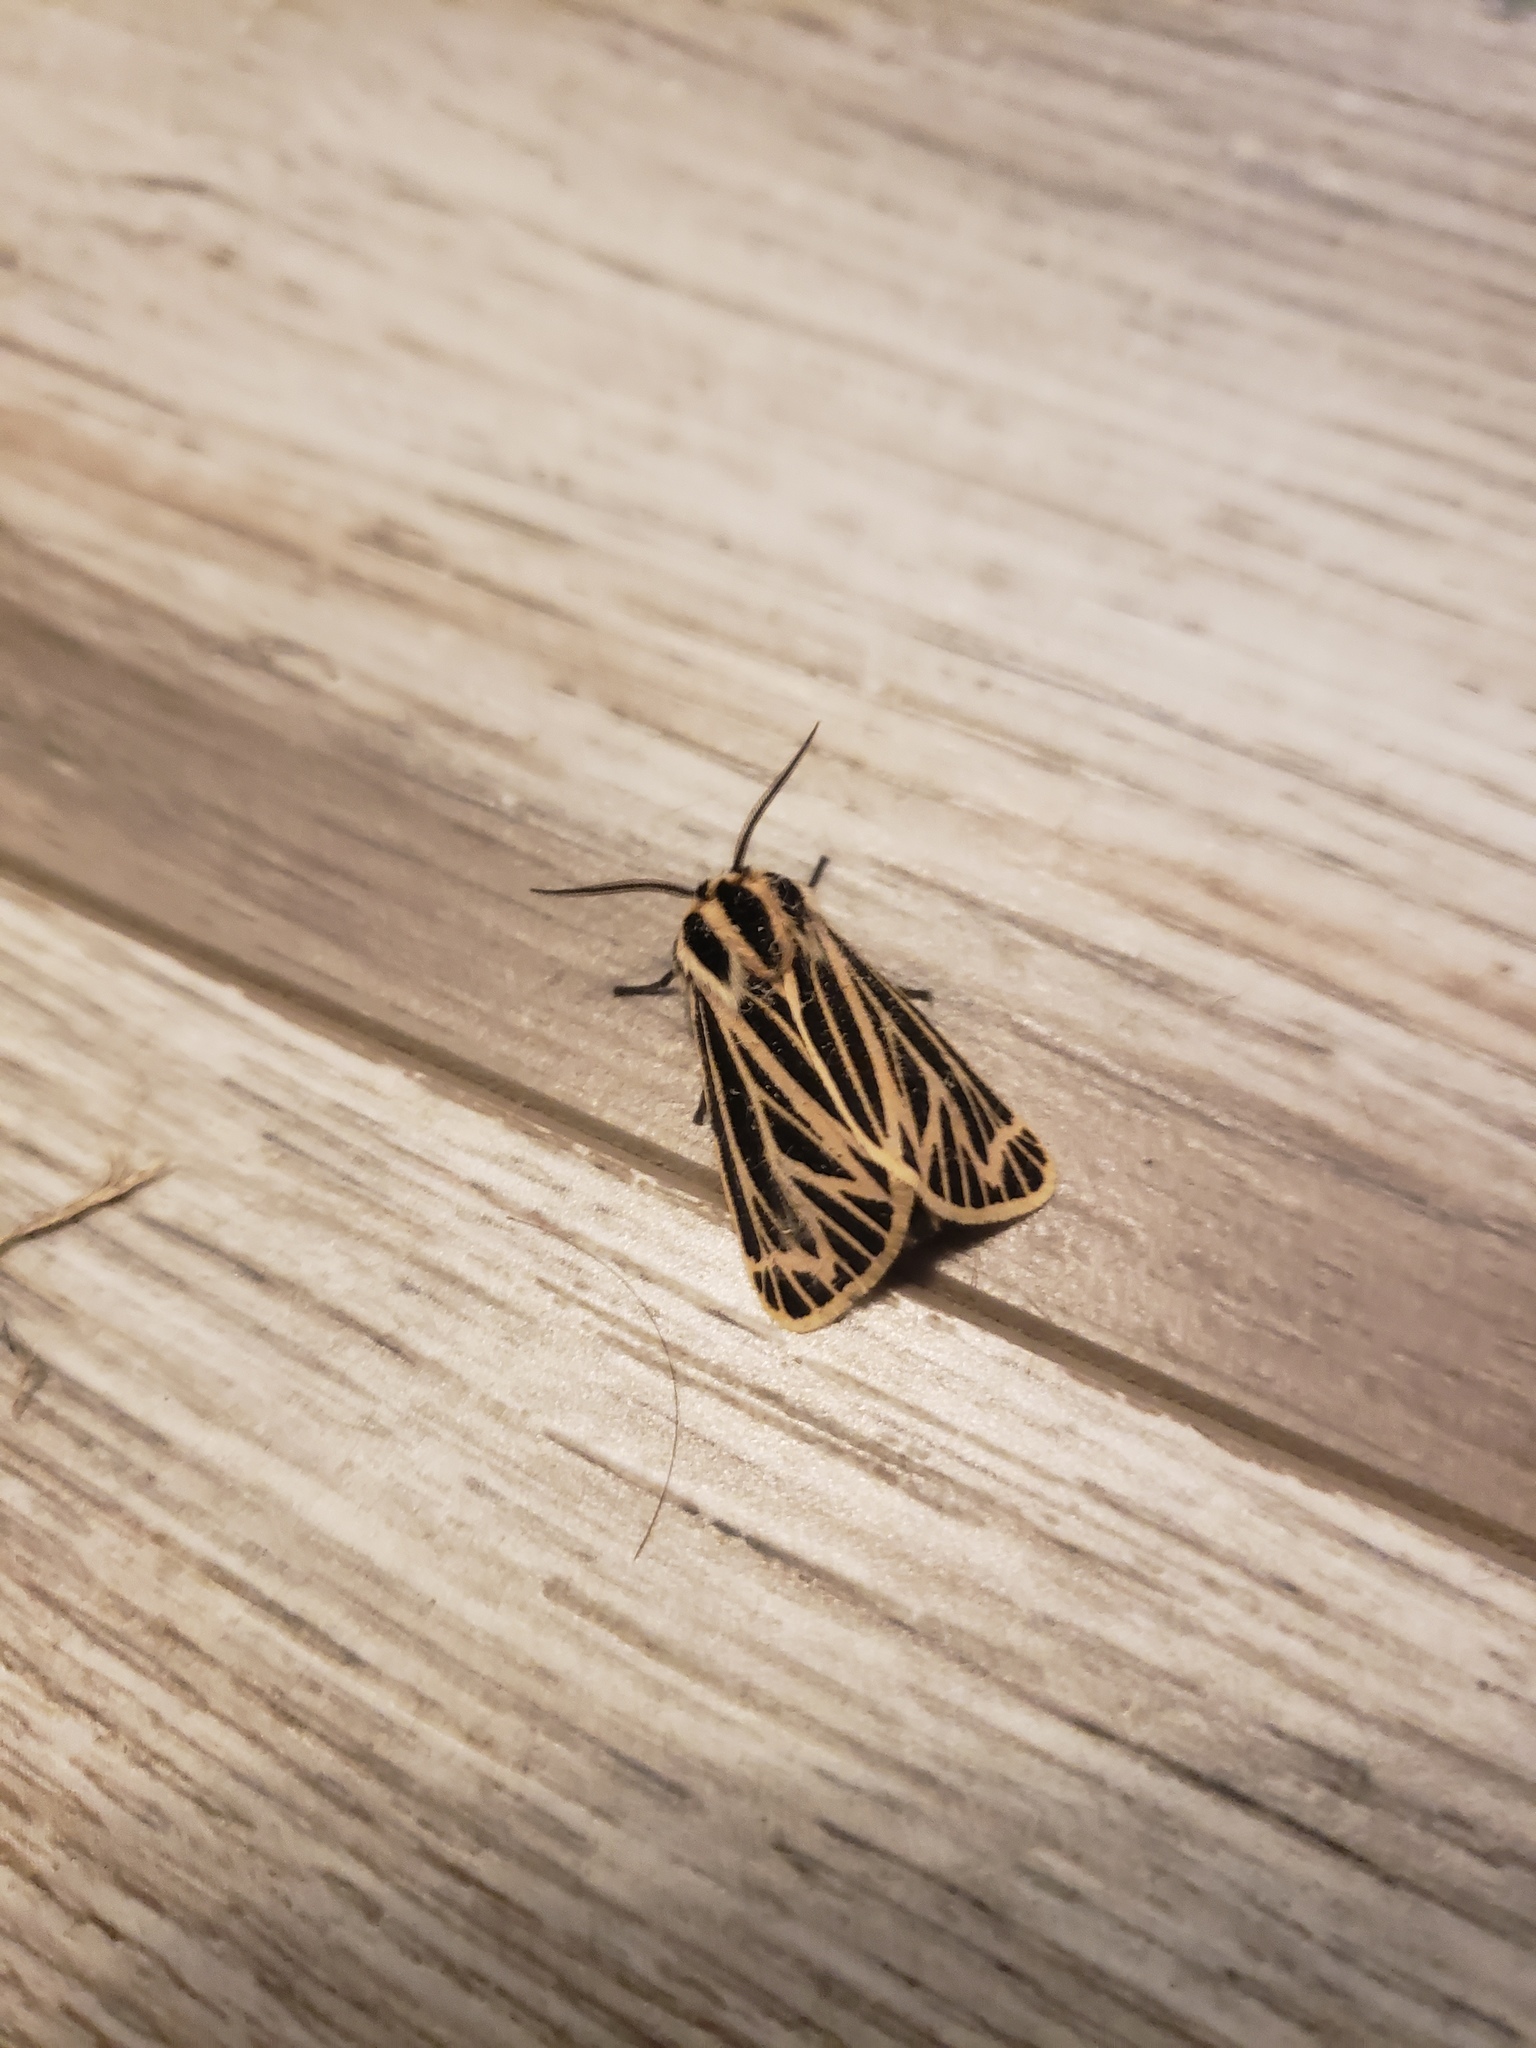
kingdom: Animalia
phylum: Arthropoda
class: Insecta
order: Lepidoptera
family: Erebidae
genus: Grammia
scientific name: Grammia virguncula
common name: Little tiger moth
